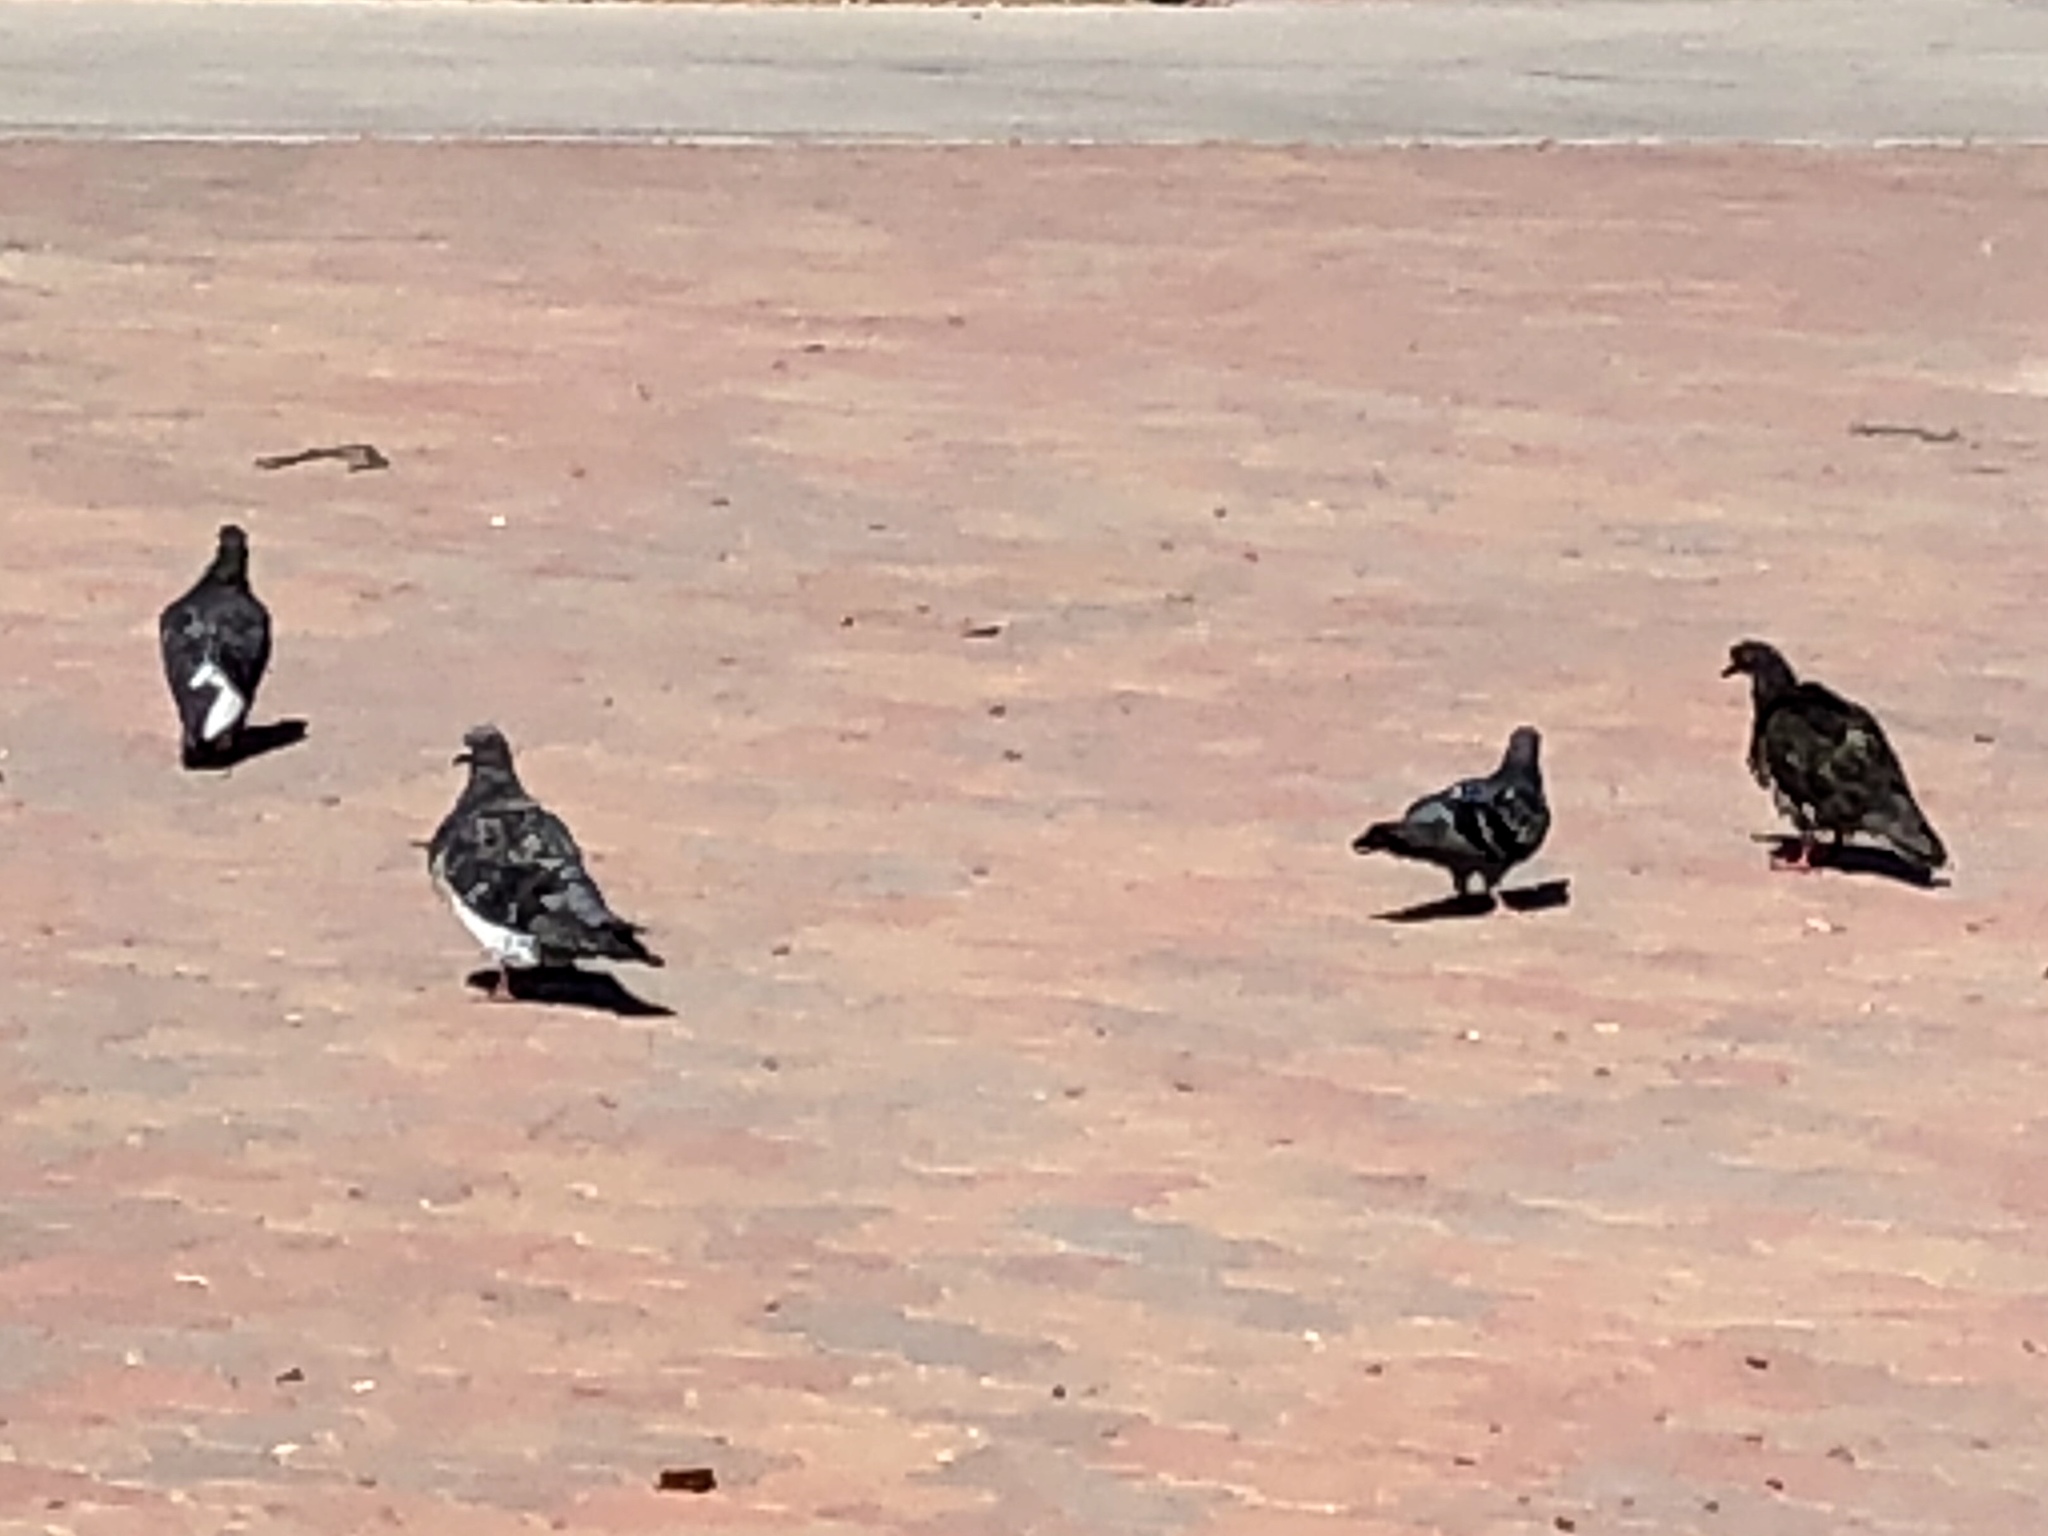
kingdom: Animalia
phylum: Chordata
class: Aves
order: Columbiformes
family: Columbidae
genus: Columba
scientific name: Columba livia
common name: Rock pigeon
